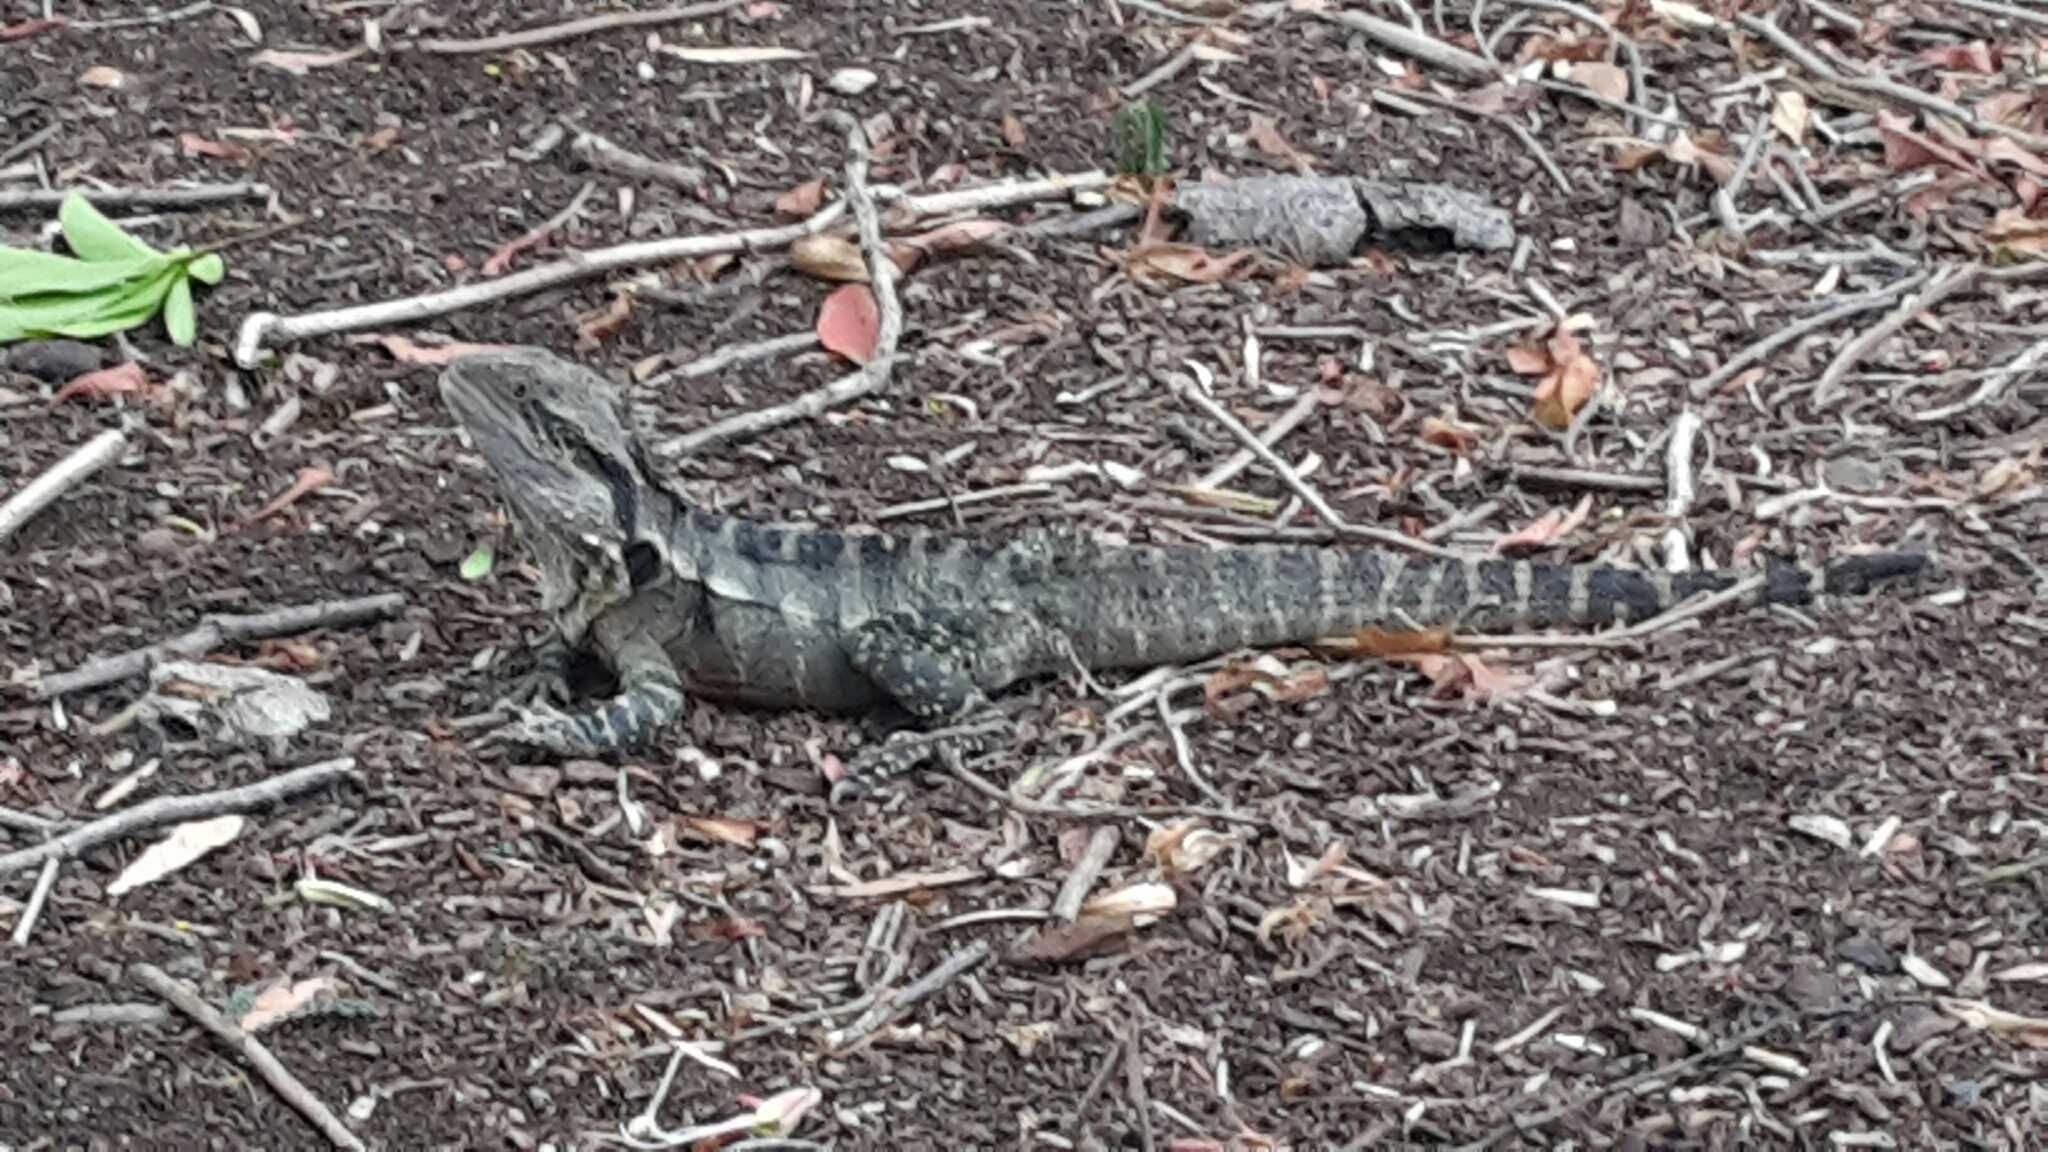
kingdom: Animalia
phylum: Chordata
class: Squamata
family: Agamidae
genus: Intellagama
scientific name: Intellagama lesueurii
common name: Eastern water dragon
